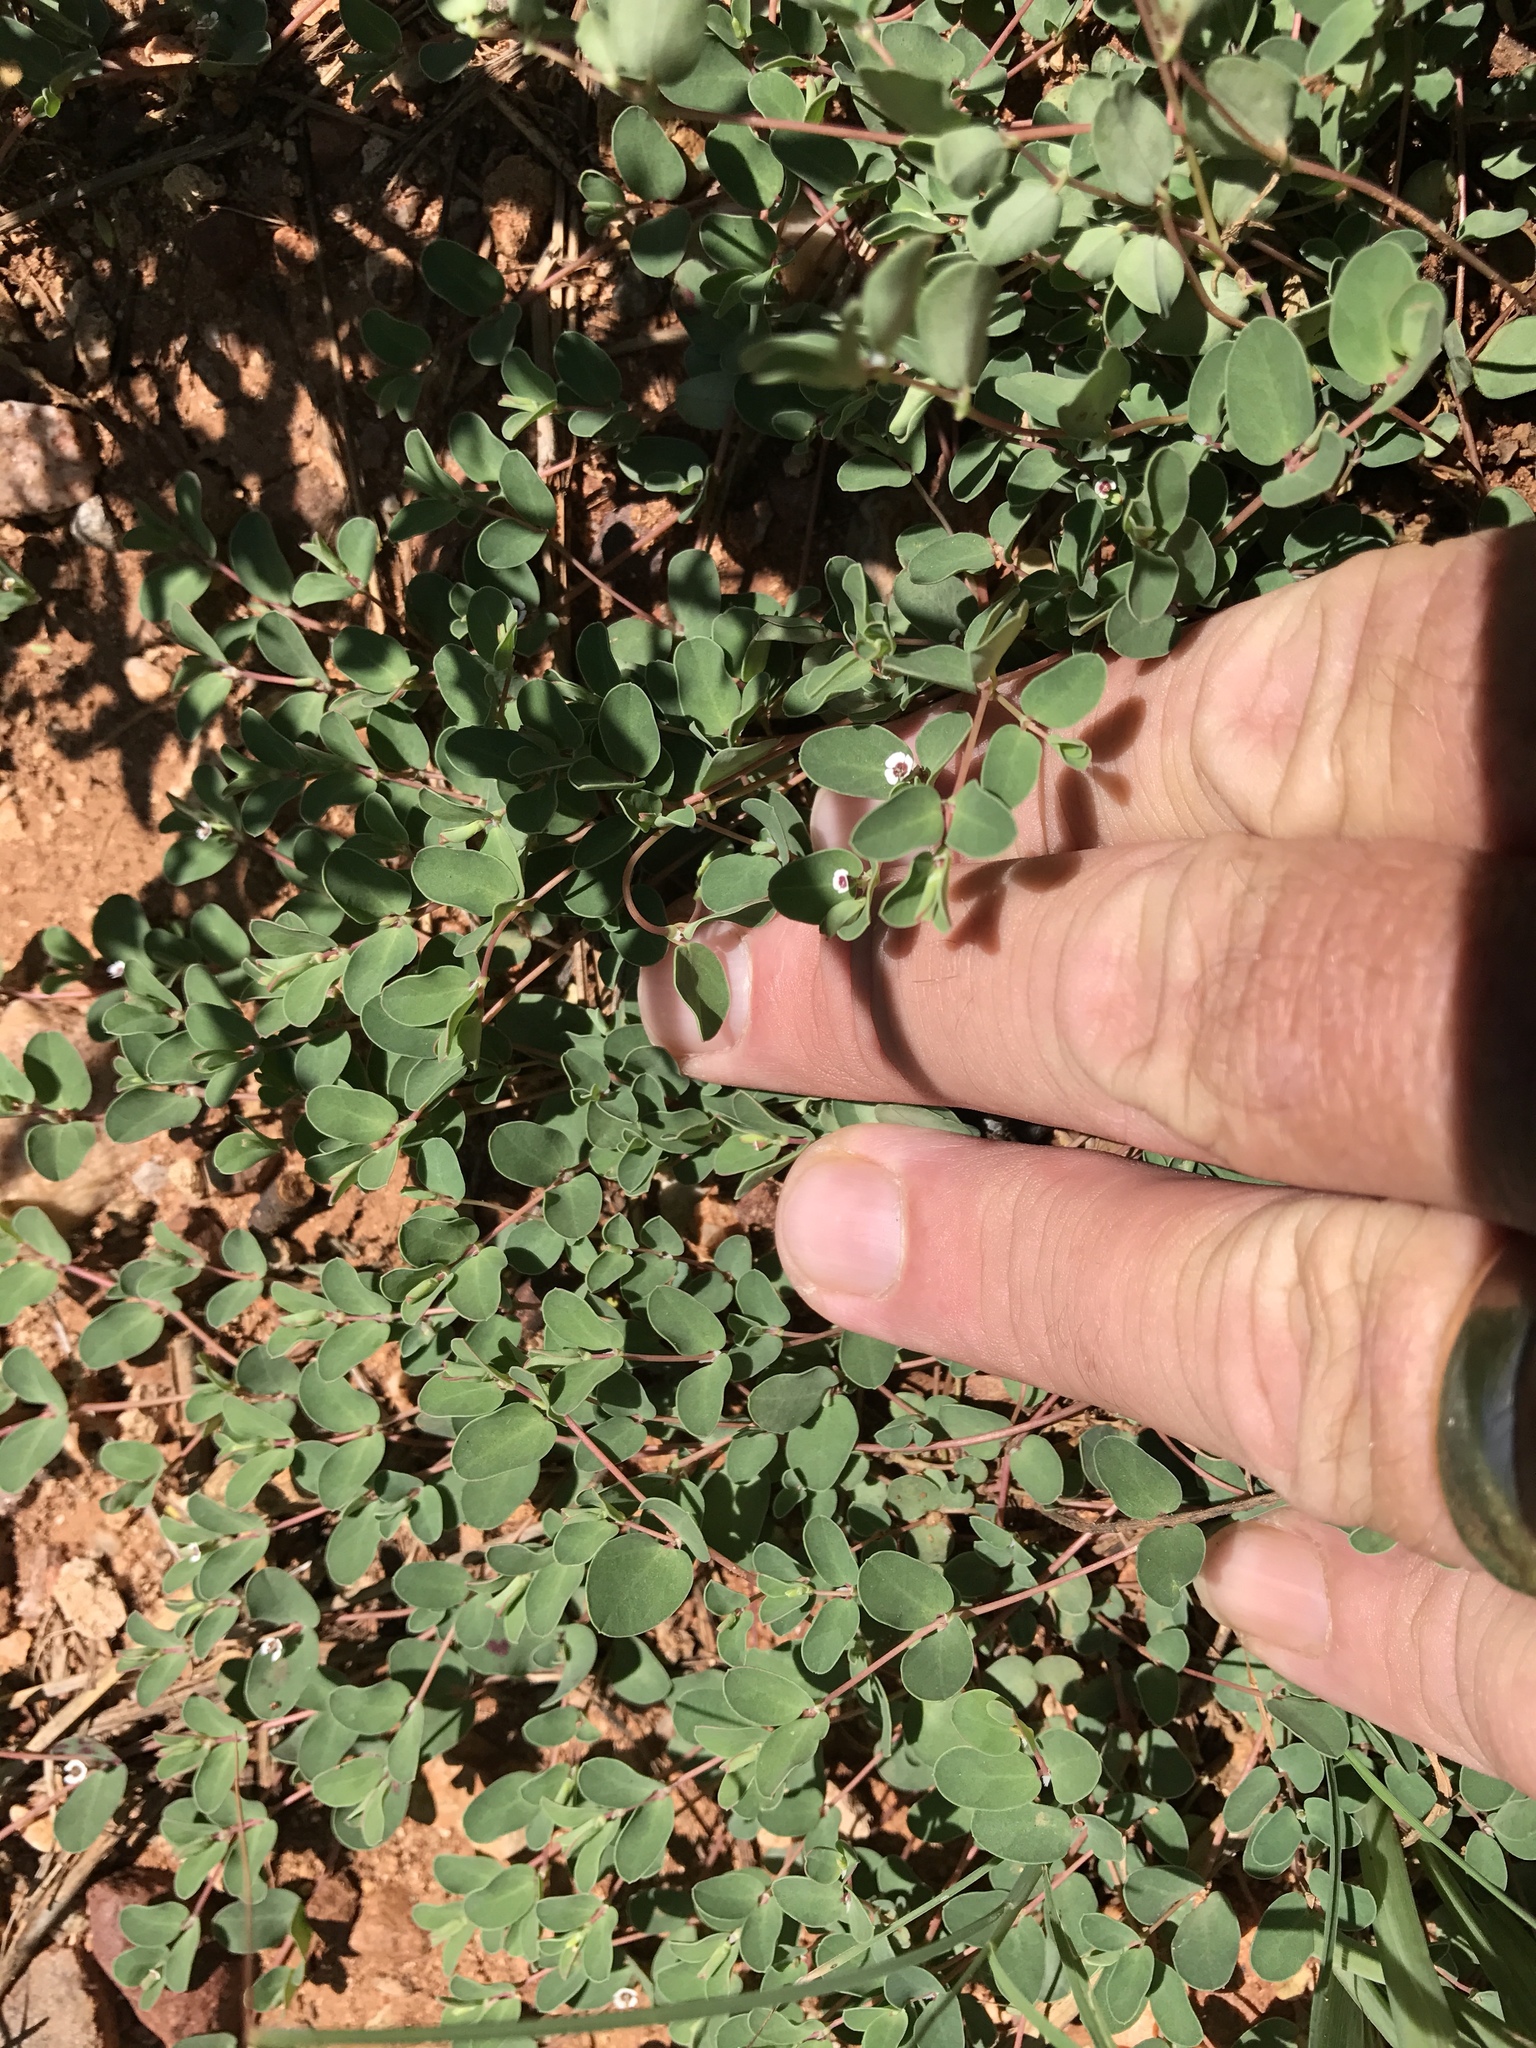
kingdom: Plantae
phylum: Tracheophyta
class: Magnoliopsida
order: Malpighiales
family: Euphorbiaceae
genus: Euphorbia
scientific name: Euphorbia albomarginata
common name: Whitemargin sandmat
